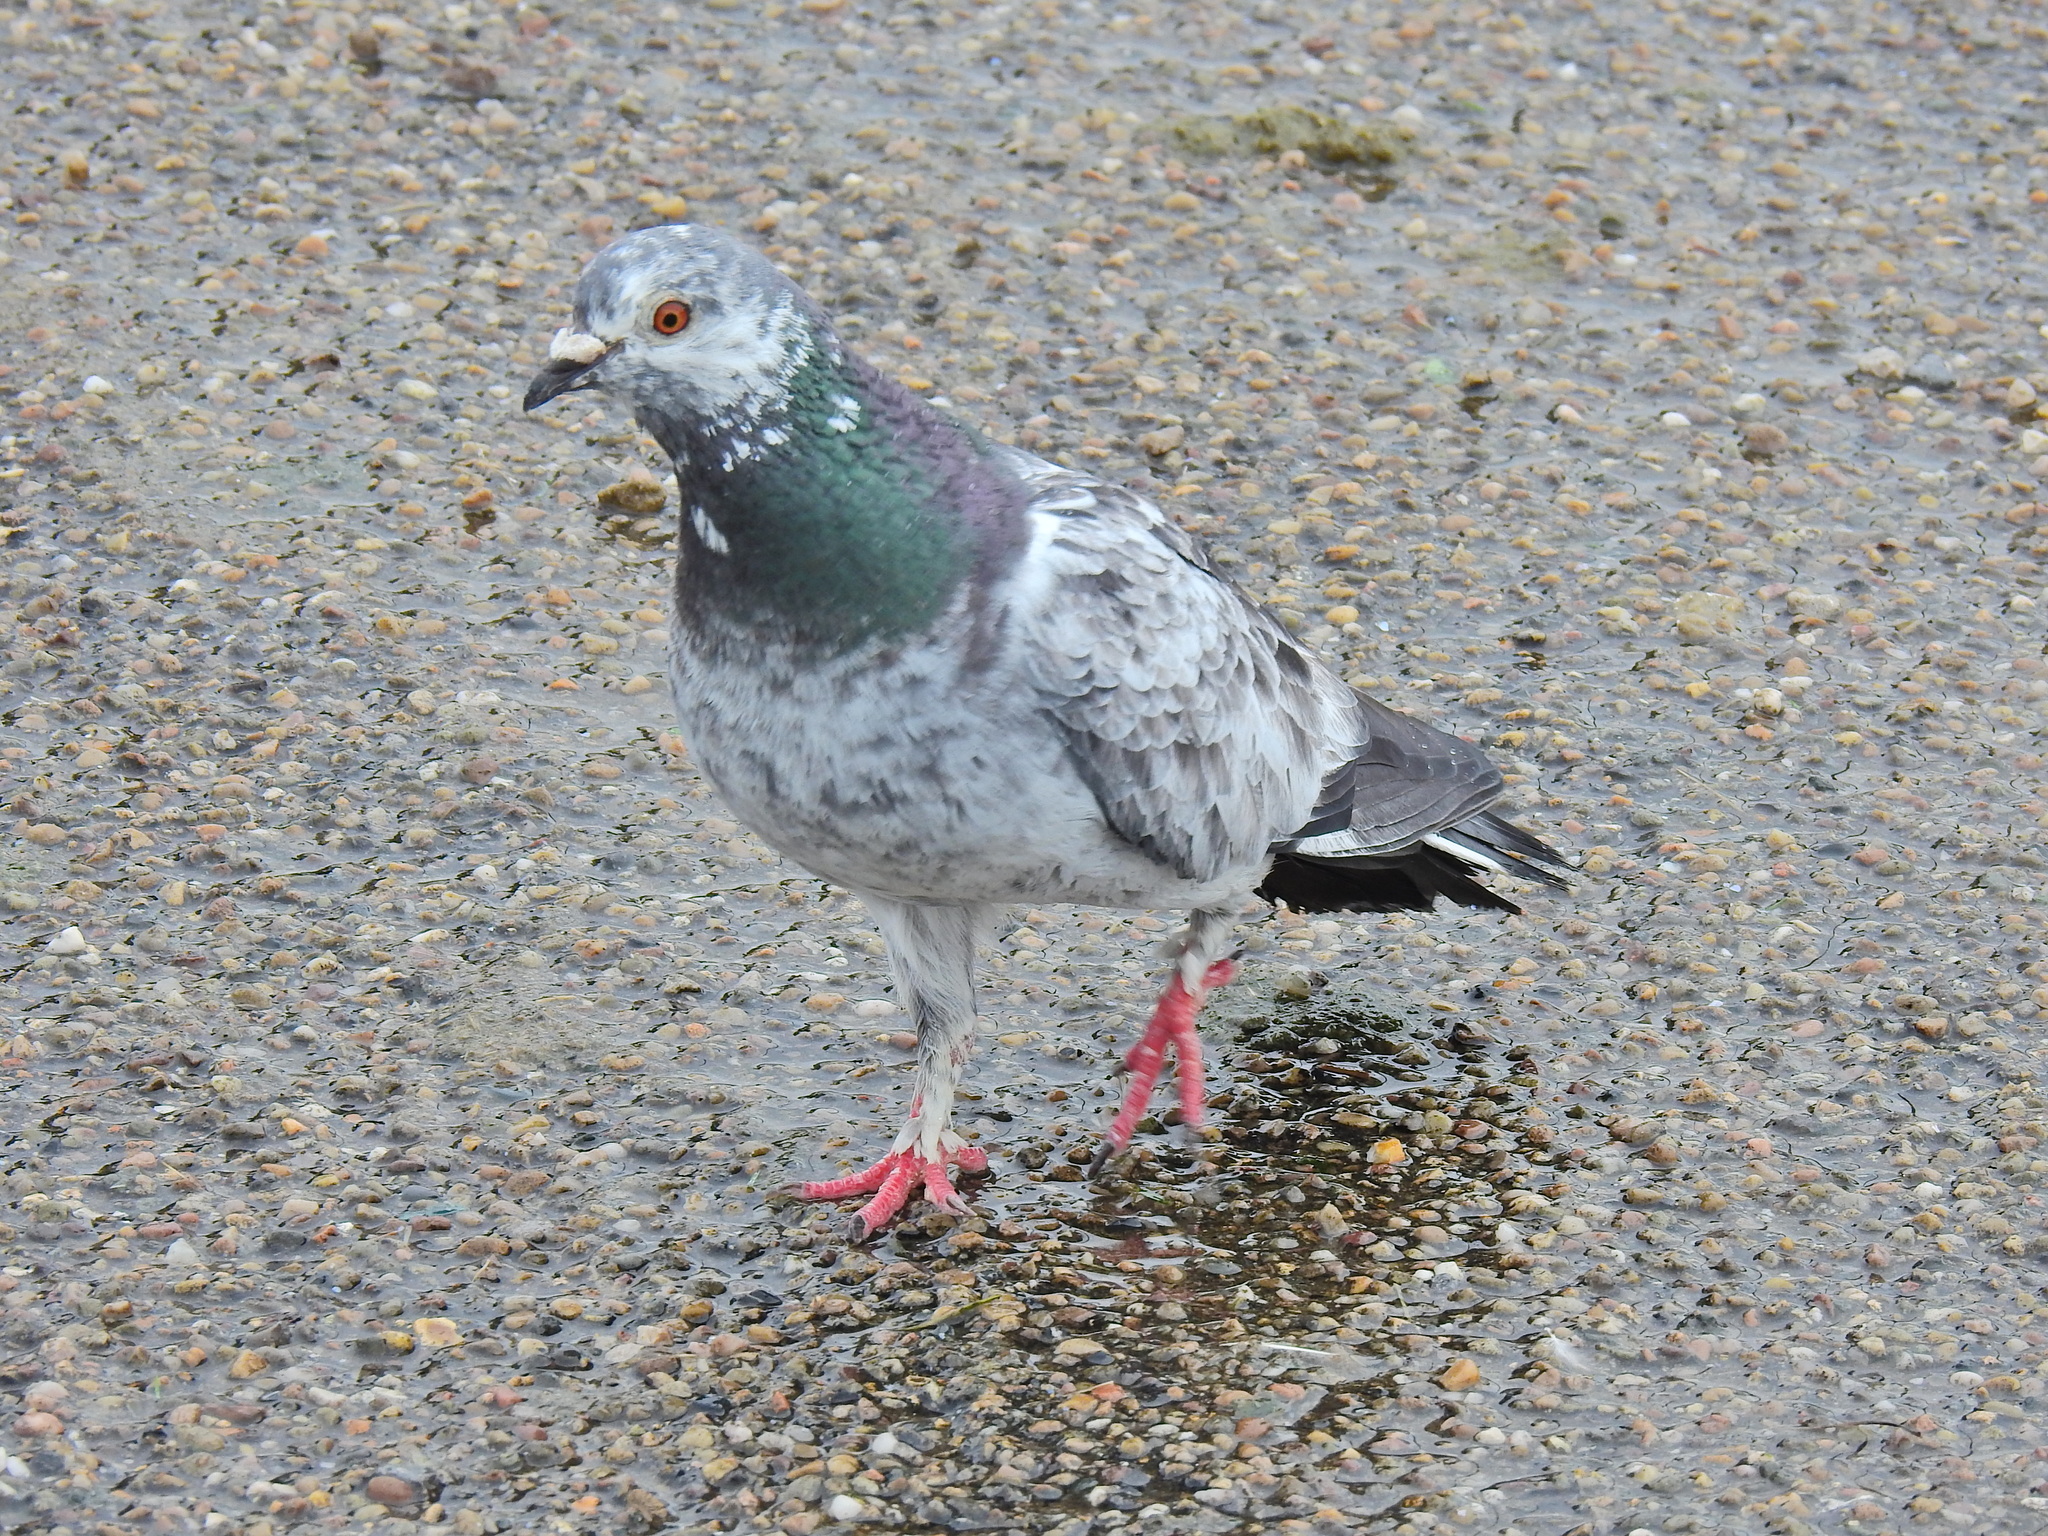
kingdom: Animalia
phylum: Chordata
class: Aves
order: Columbiformes
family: Columbidae
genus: Columba
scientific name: Columba livia
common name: Rock pigeon
